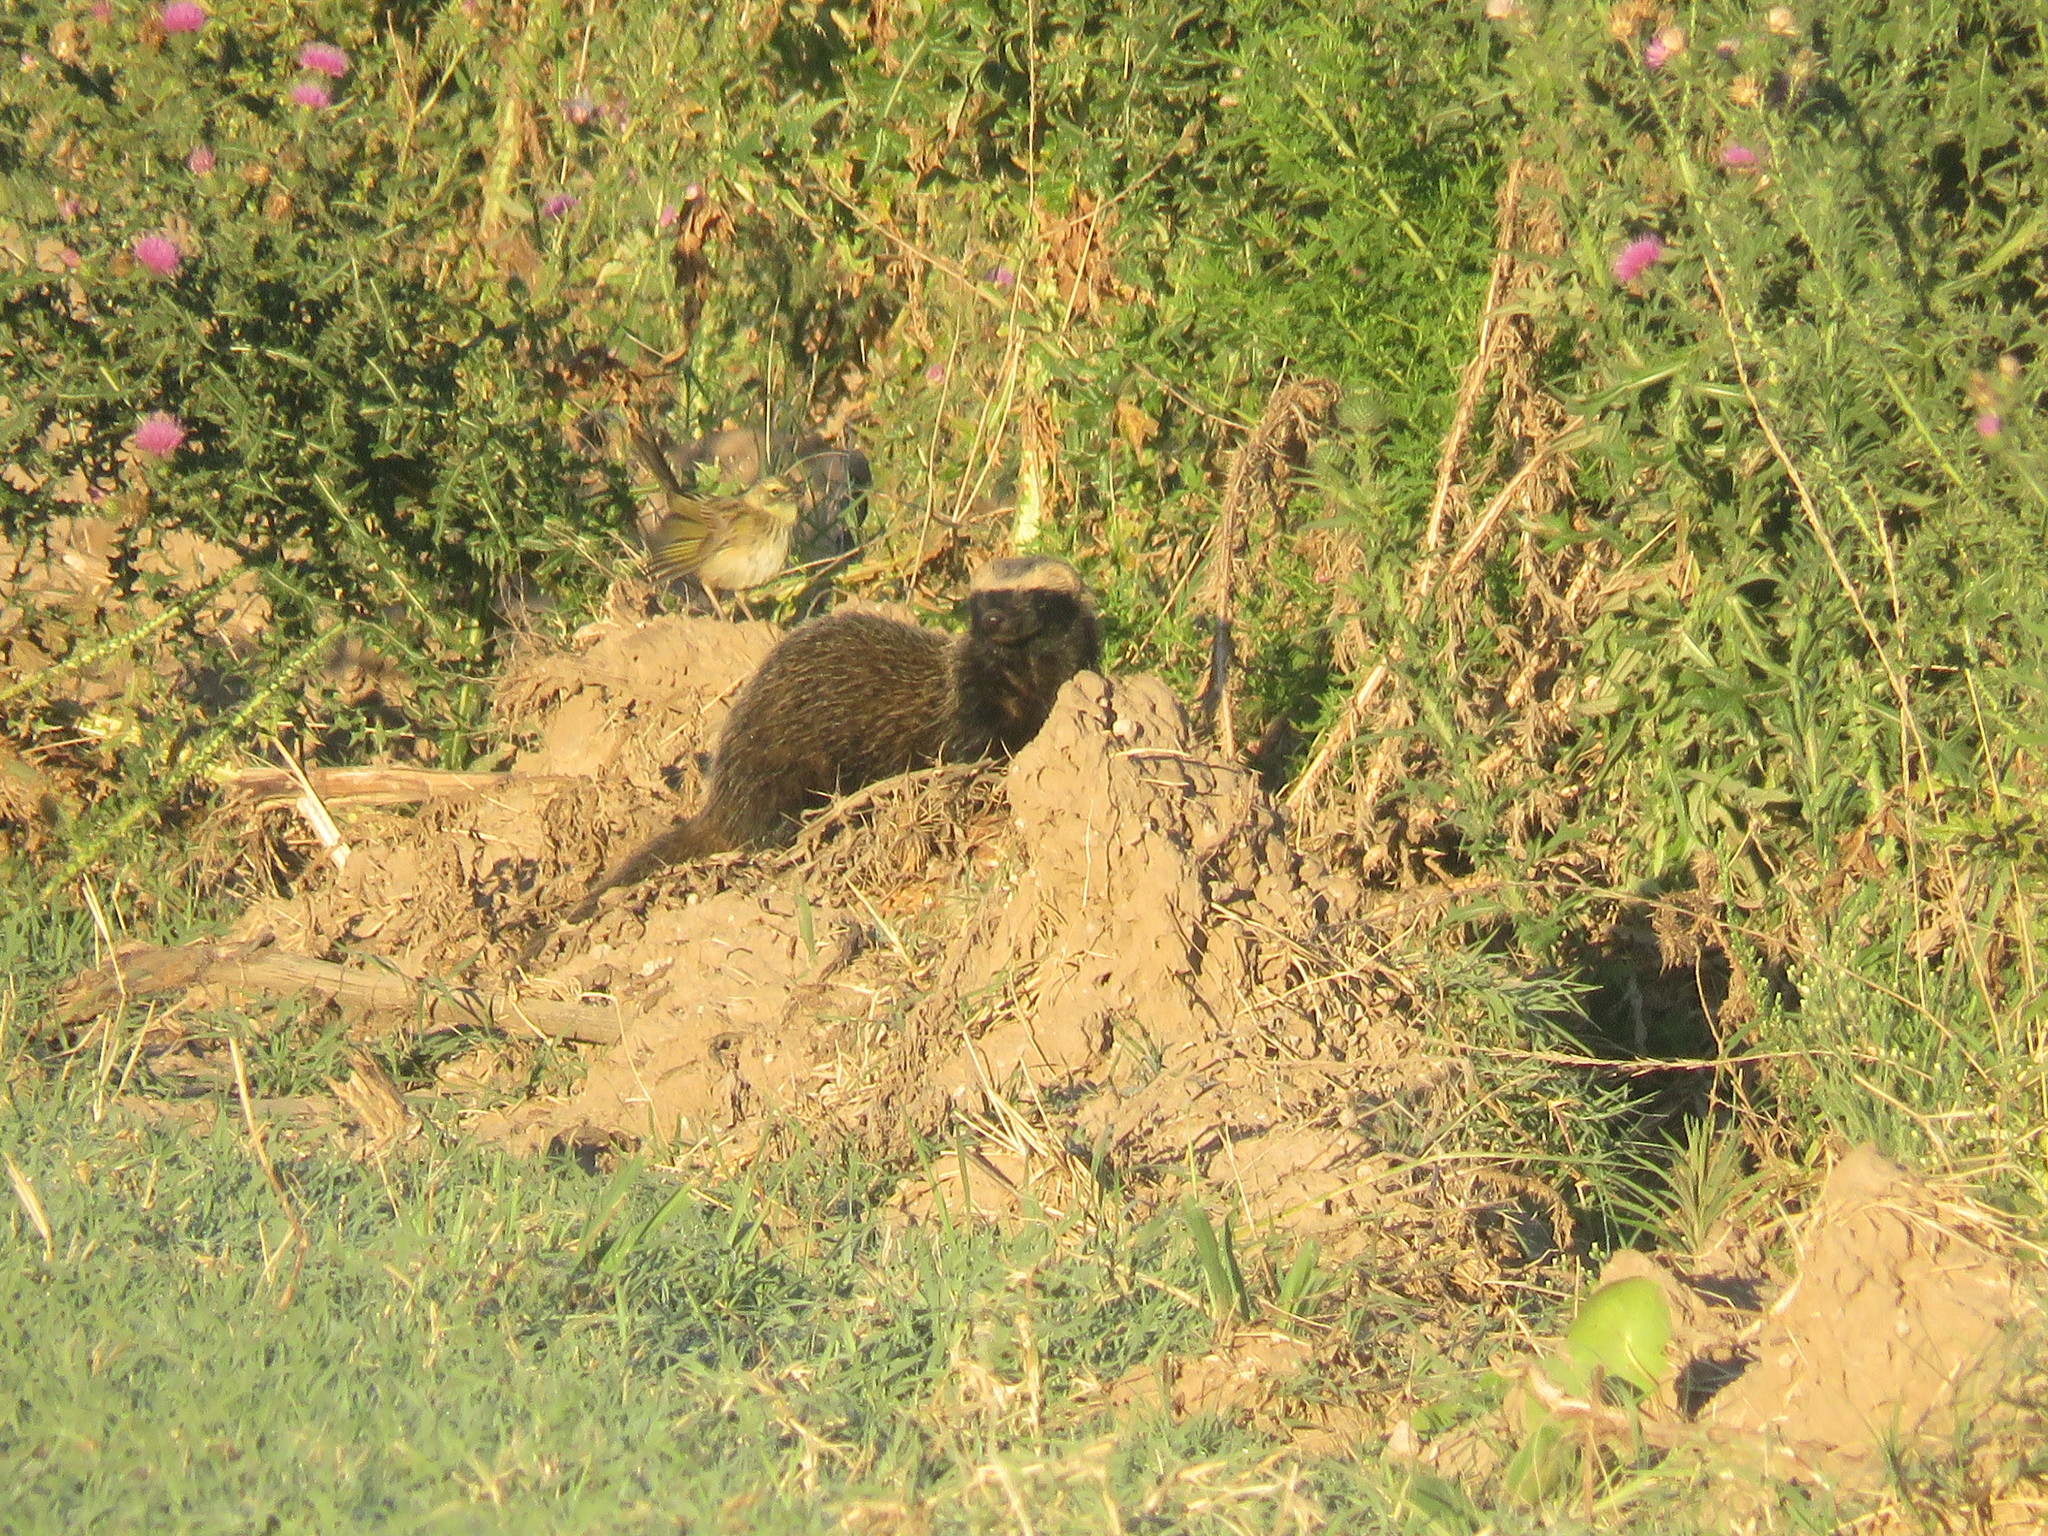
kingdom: Animalia
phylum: Chordata
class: Mammalia
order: Carnivora
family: Mustelidae
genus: Galictis
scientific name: Galictis cuja
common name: Lesser grison
